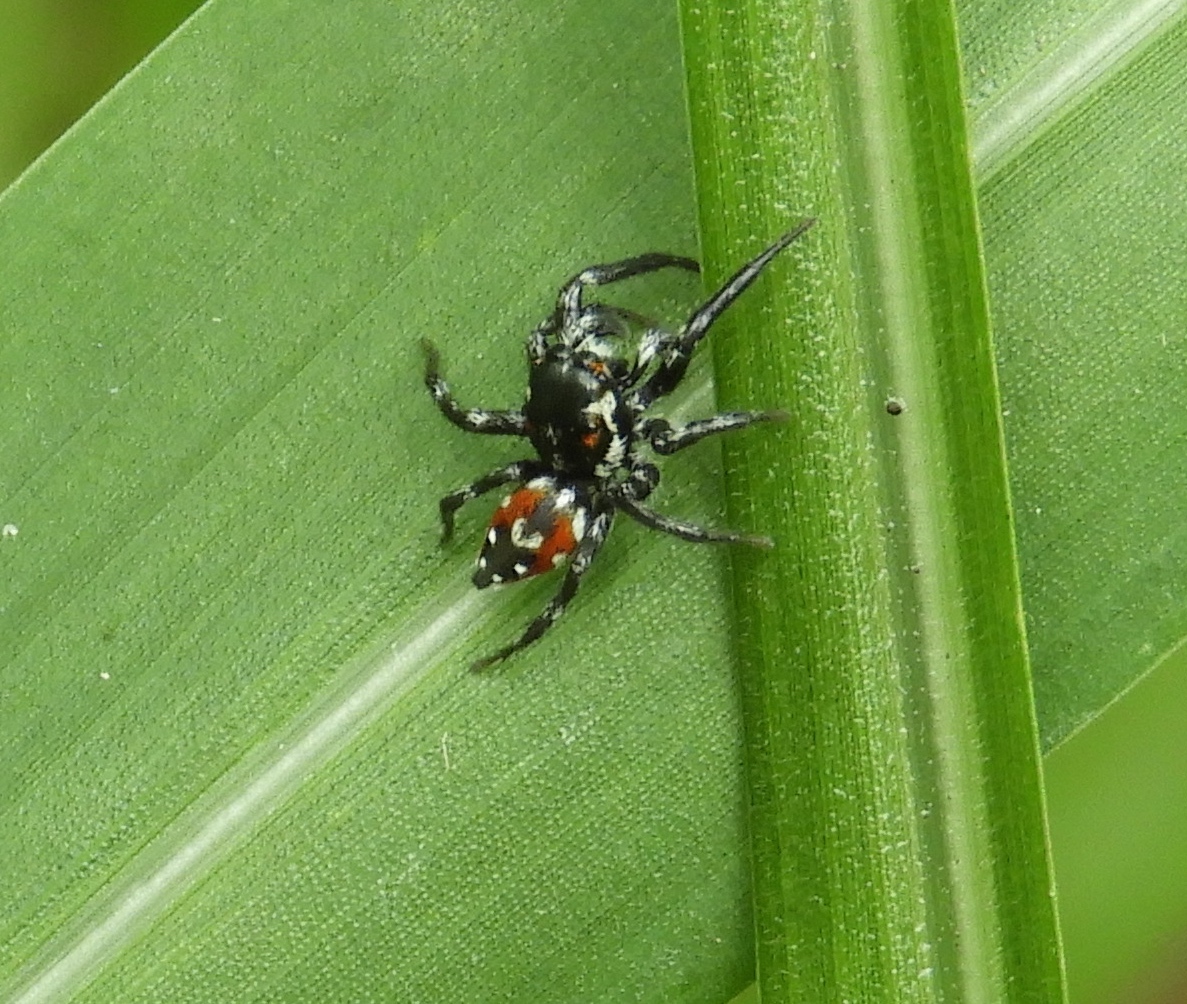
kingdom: Animalia
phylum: Arthropoda
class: Arachnida
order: Araneae
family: Salticidae
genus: Nycerella
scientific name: Nycerella delecta
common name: Jumping spiders
